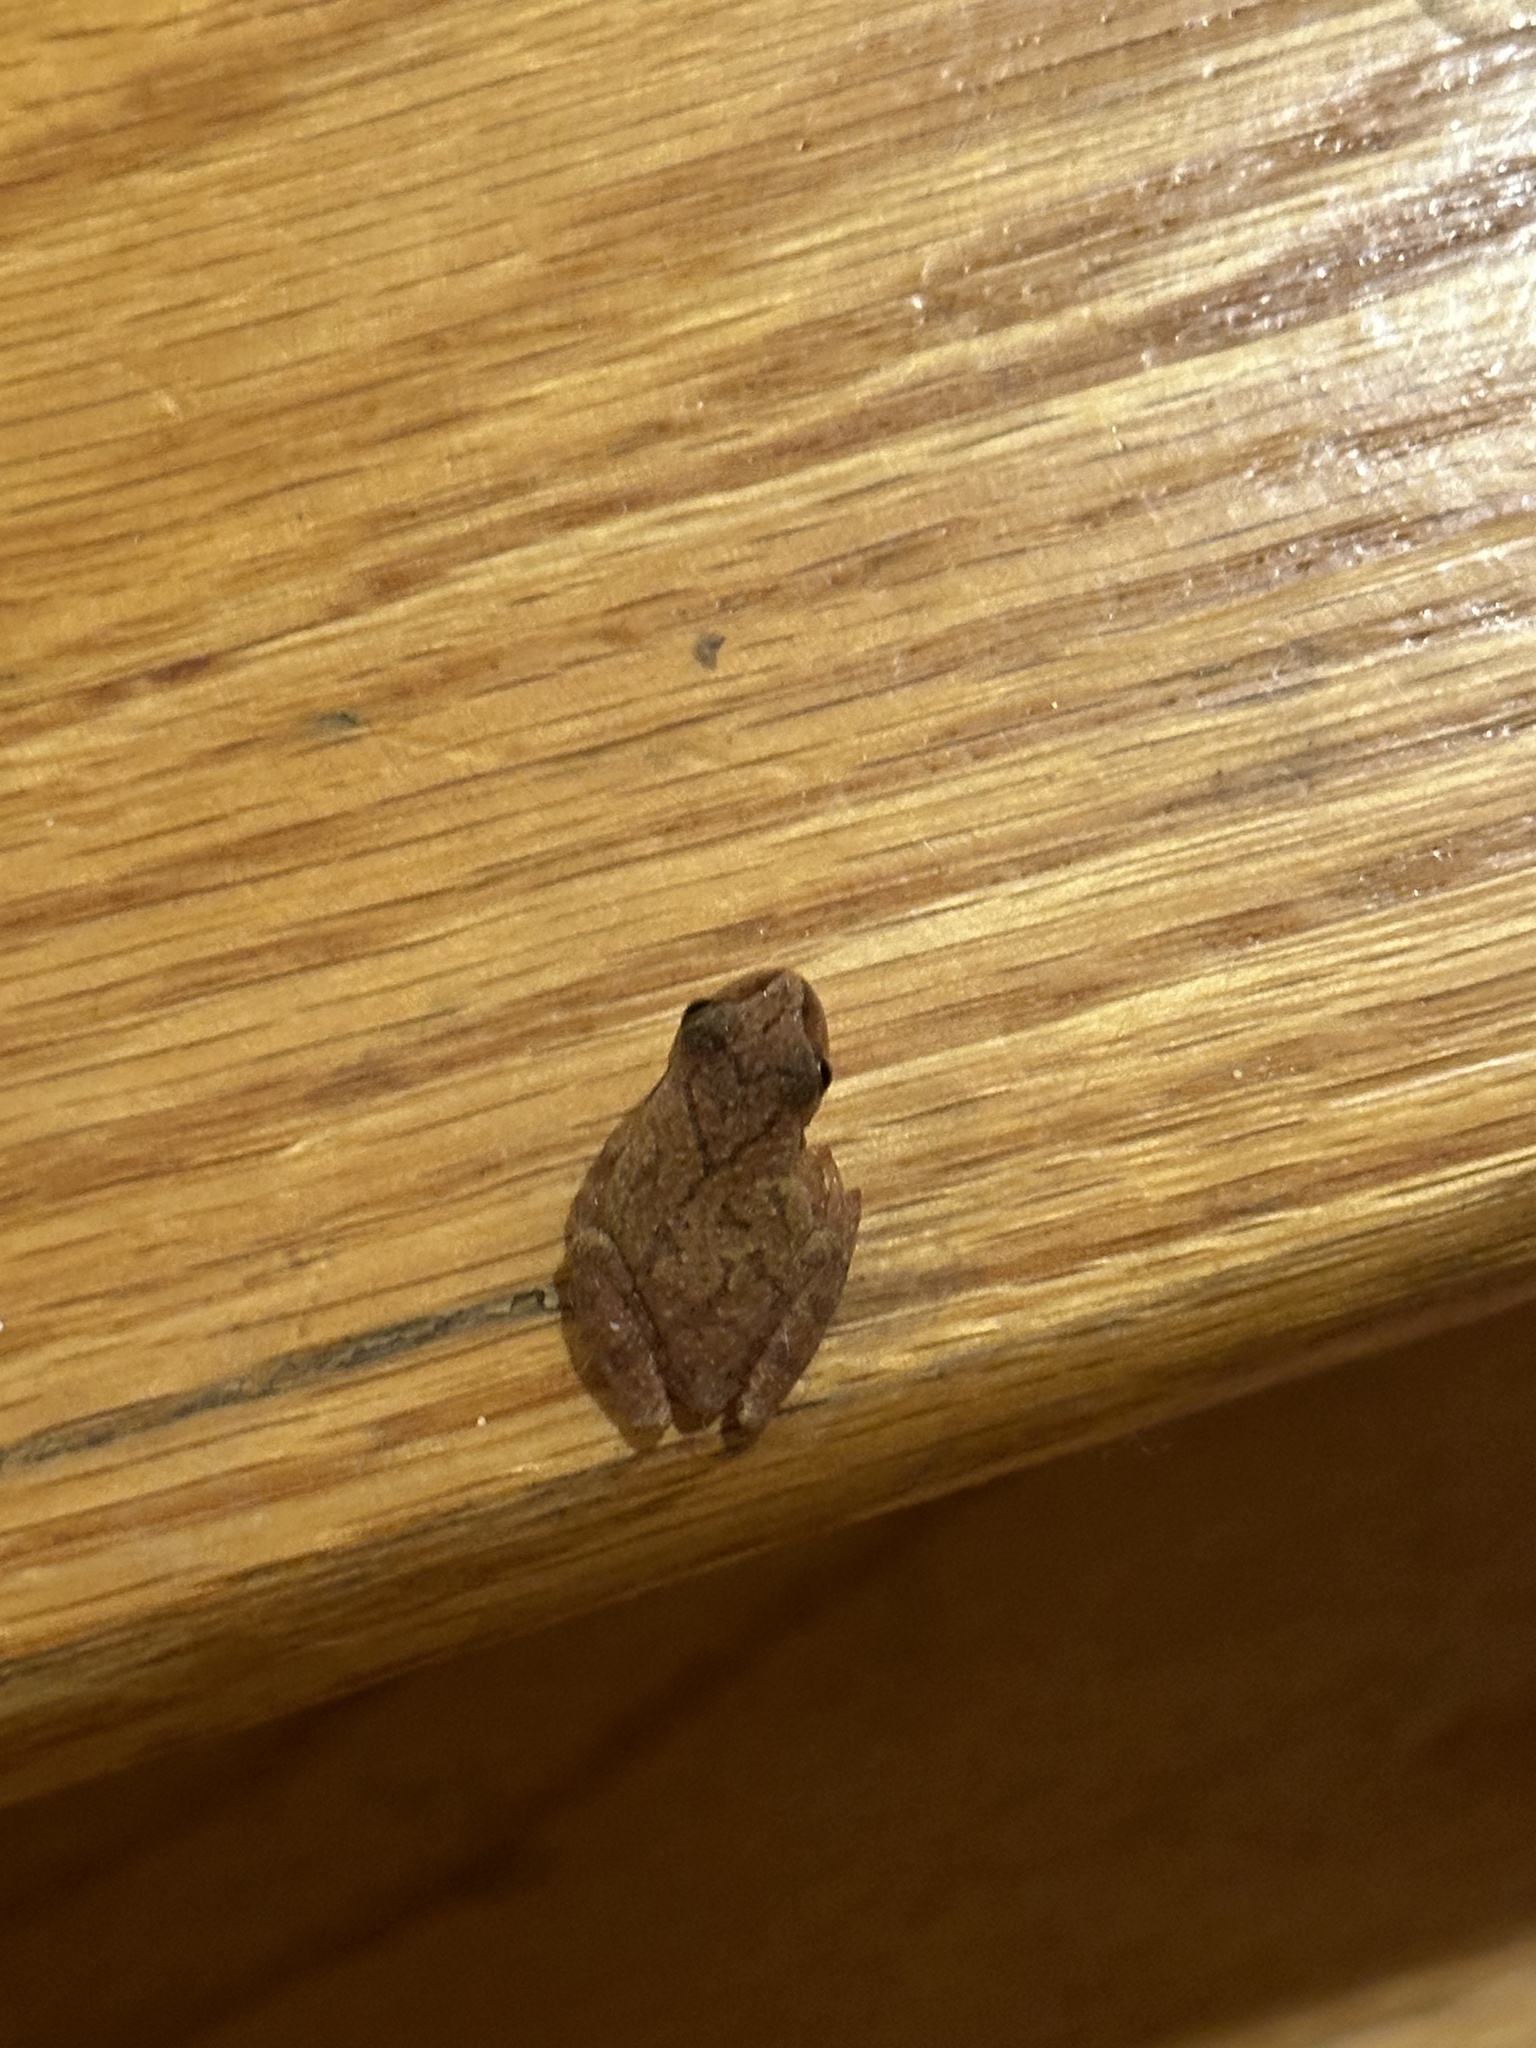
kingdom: Animalia
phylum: Chordata
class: Amphibia
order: Anura
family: Hylidae
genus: Pseudacris
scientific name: Pseudacris crucifer
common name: Spring peeper
